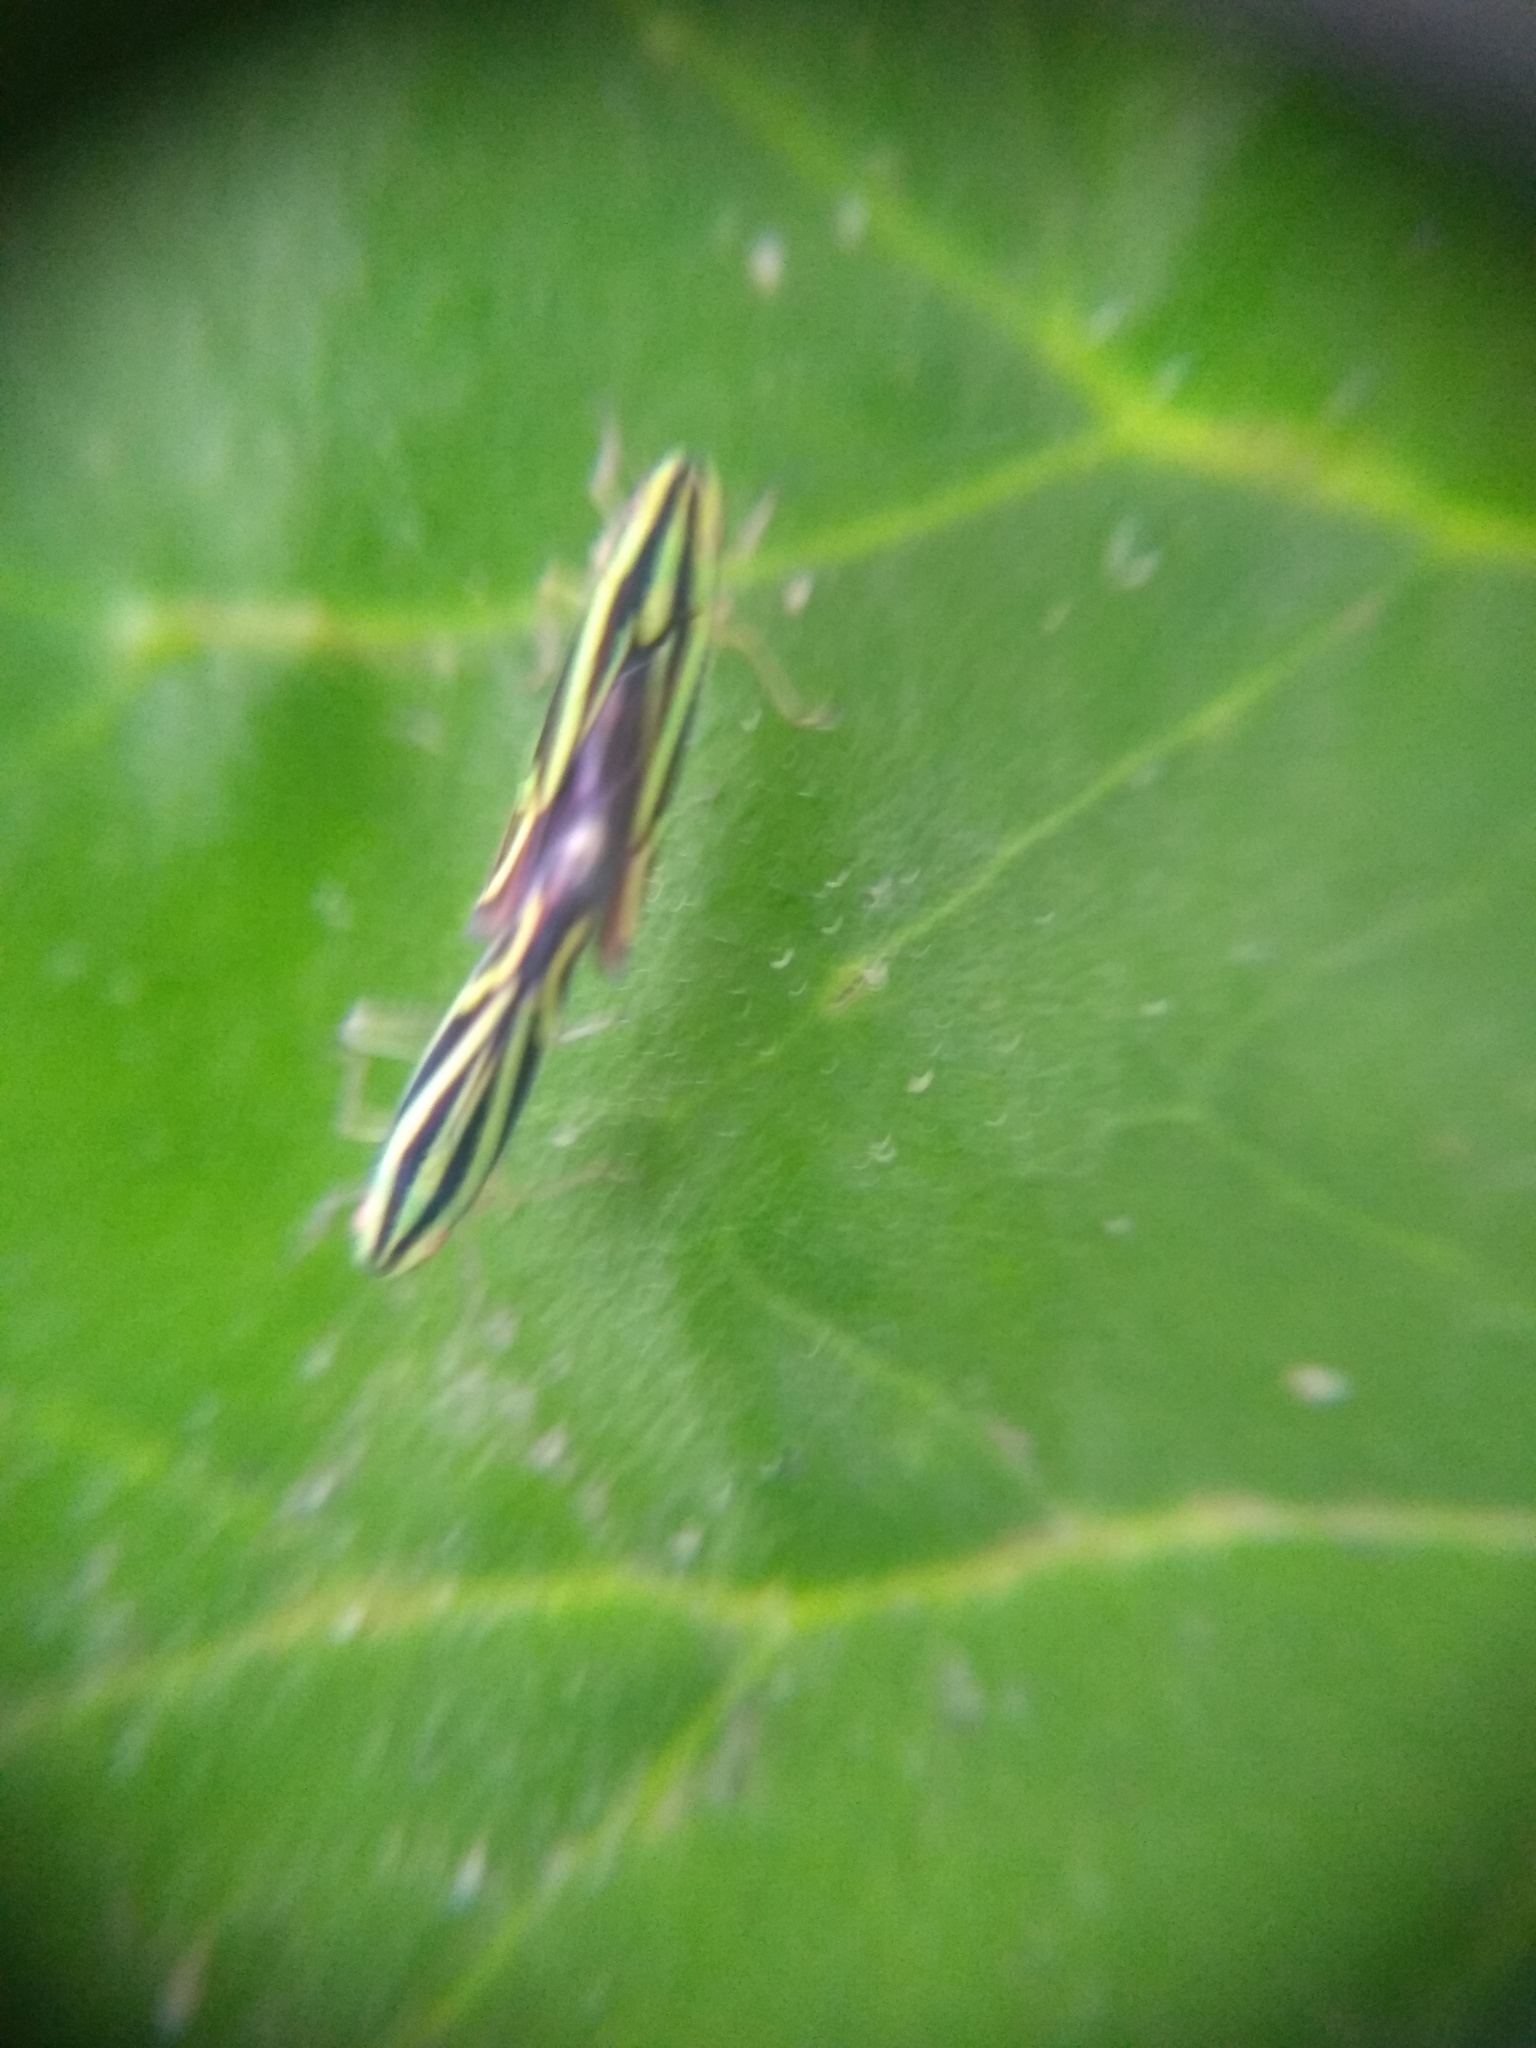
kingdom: Animalia
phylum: Arthropoda
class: Insecta
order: Hemiptera
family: Cicadellidae
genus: Sibovia
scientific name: Sibovia sagata
